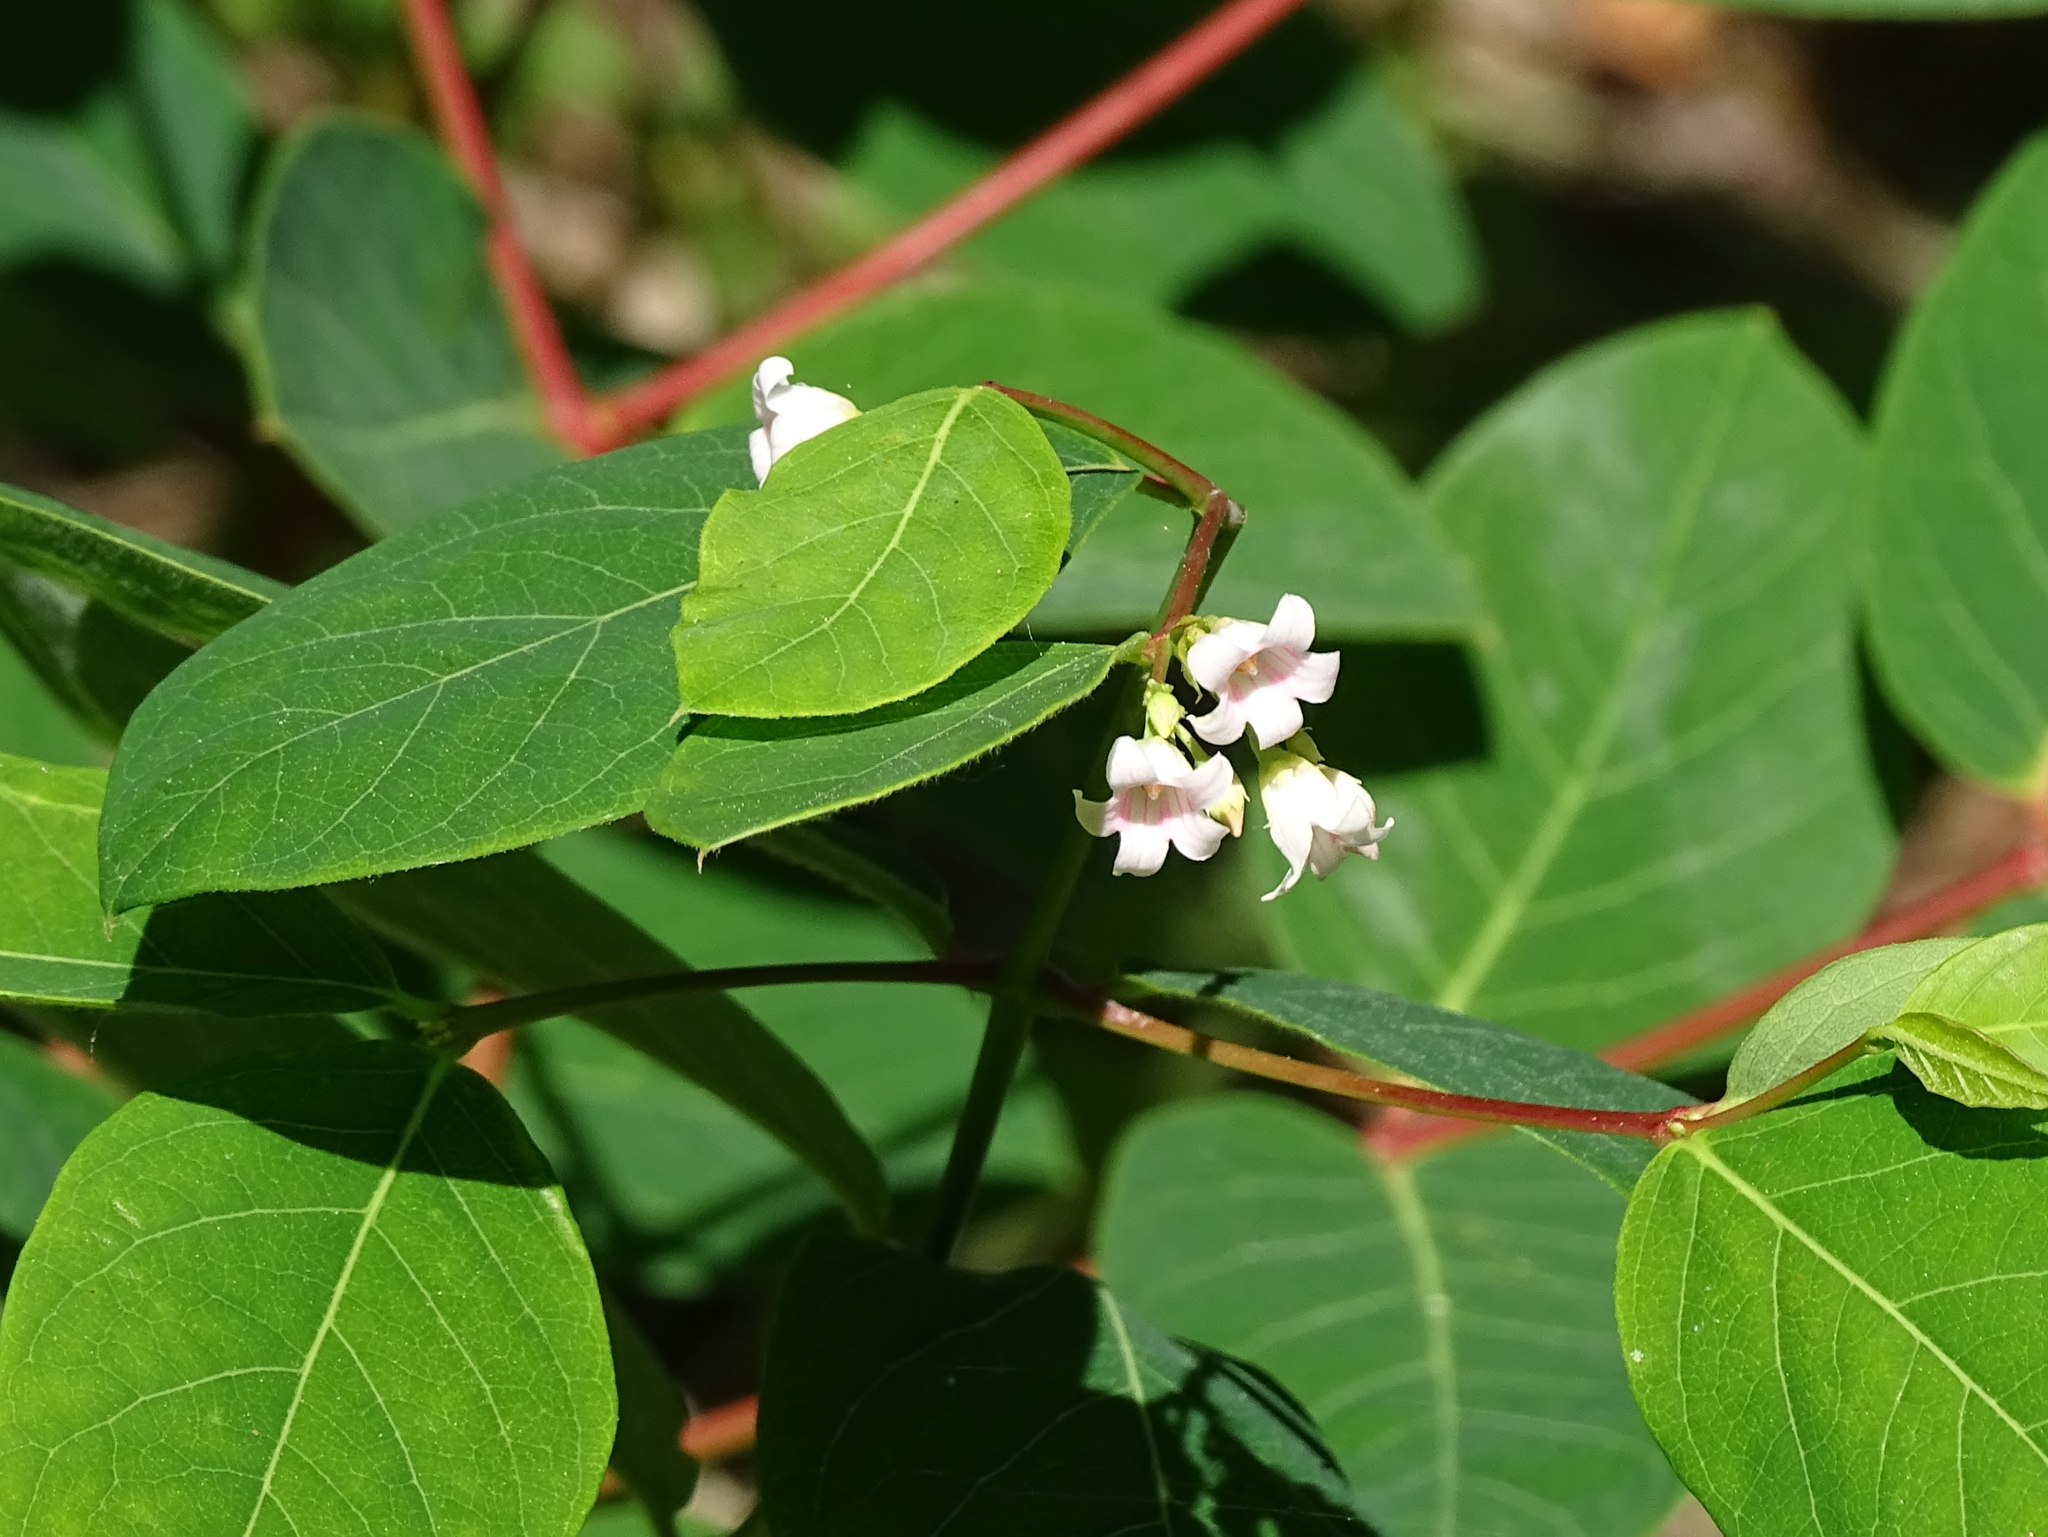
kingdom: Plantae
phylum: Tracheophyta
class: Magnoliopsida
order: Gentianales
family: Apocynaceae
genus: Apocynum
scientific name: Apocynum androsaemifolium
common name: Spreading dogbane
